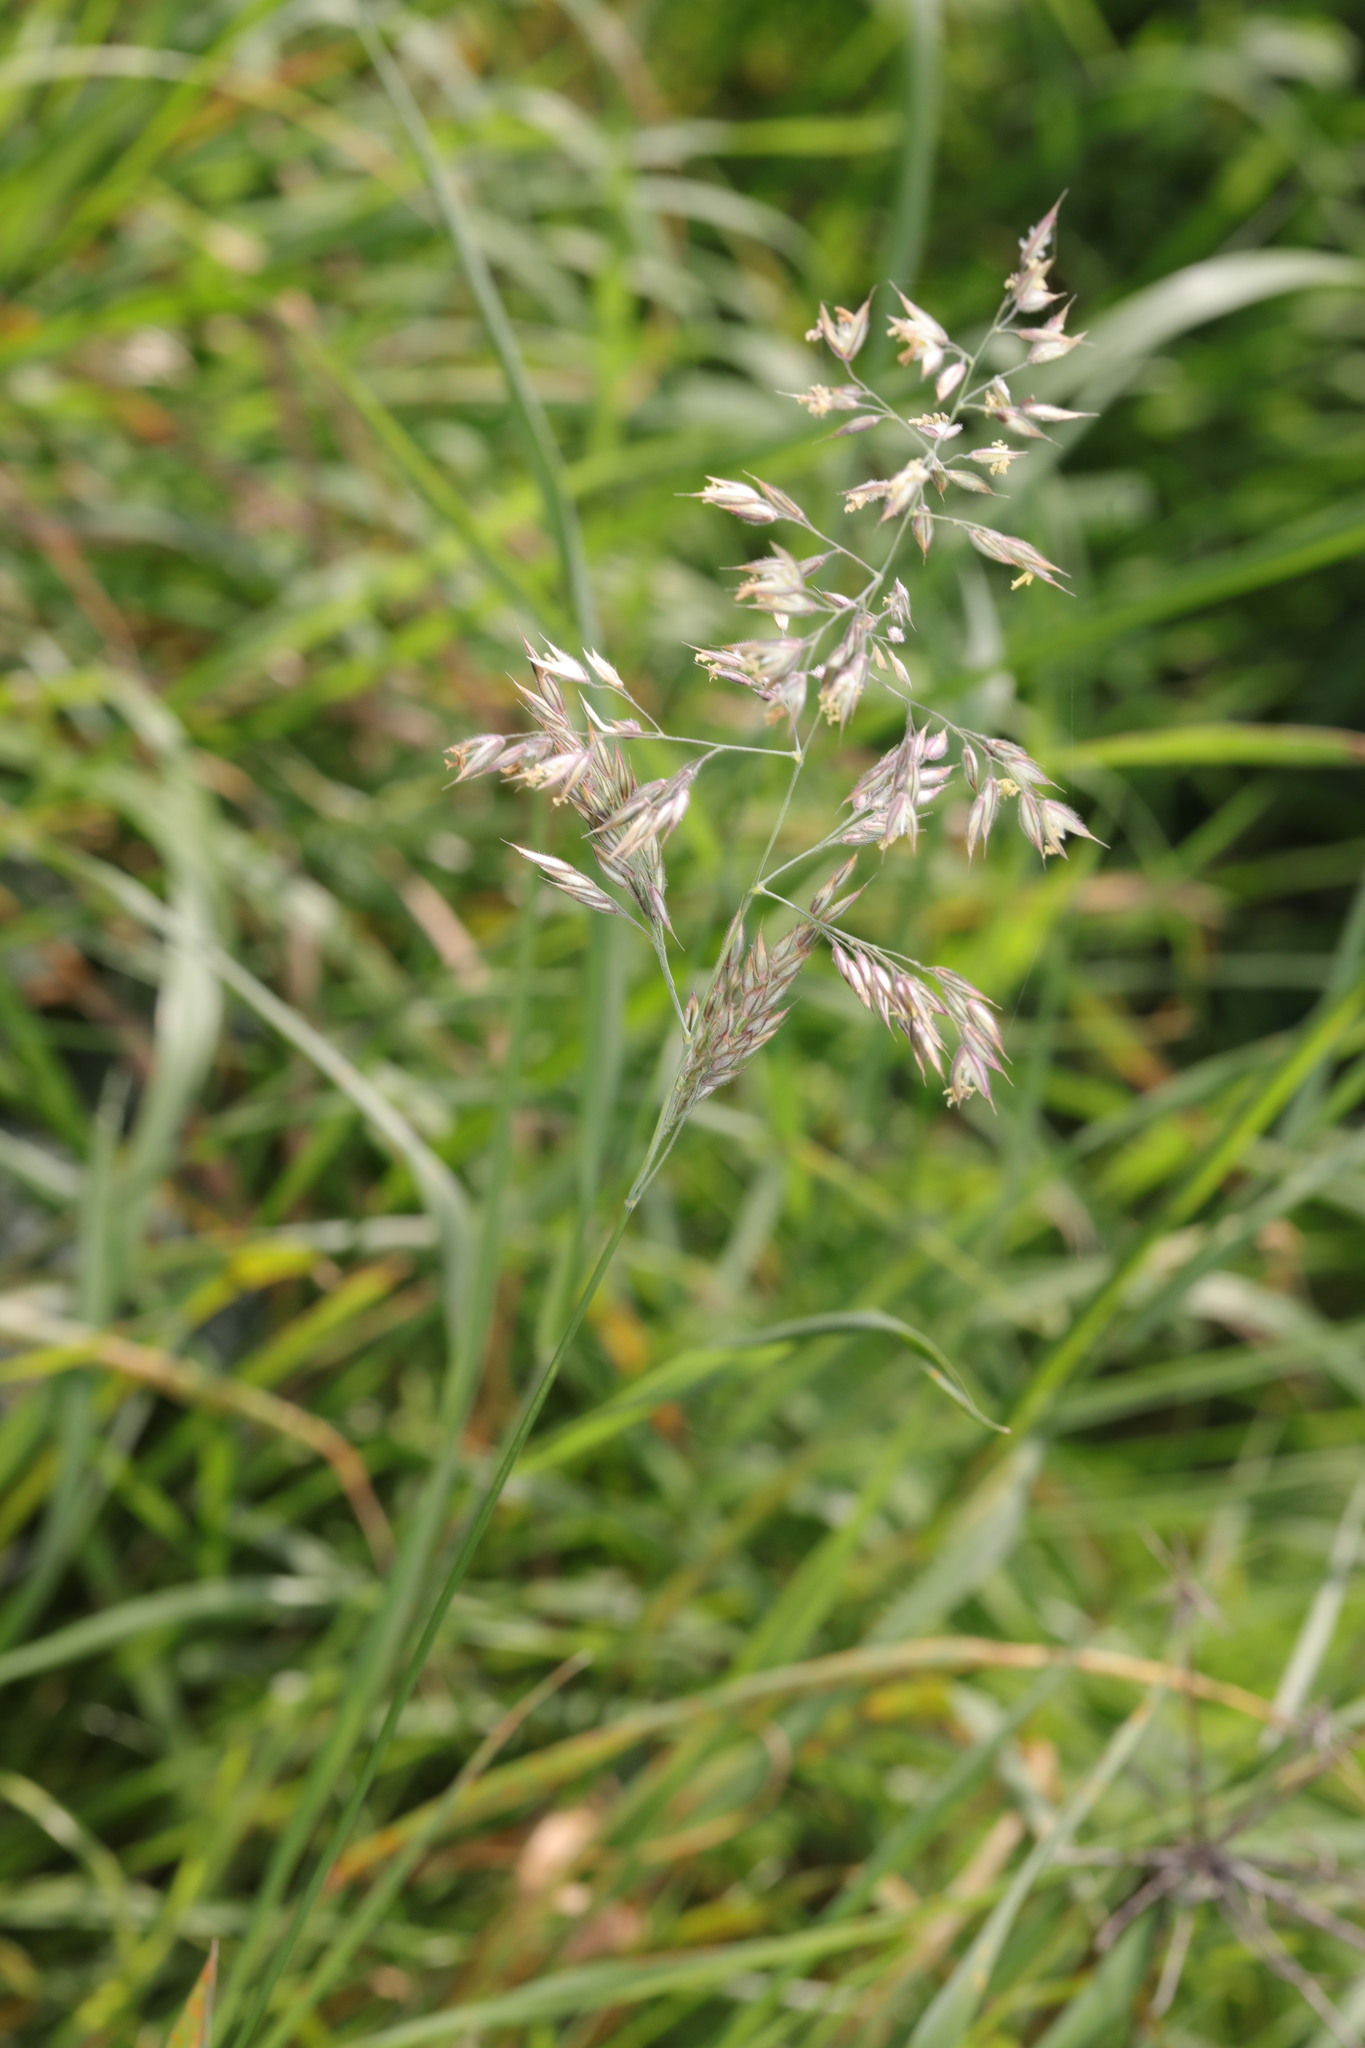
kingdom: Plantae
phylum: Tracheophyta
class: Liliopsida
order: Poales
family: Poaceae
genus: Holcus
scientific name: Holcus lanatus
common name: Yorkshire-fog
